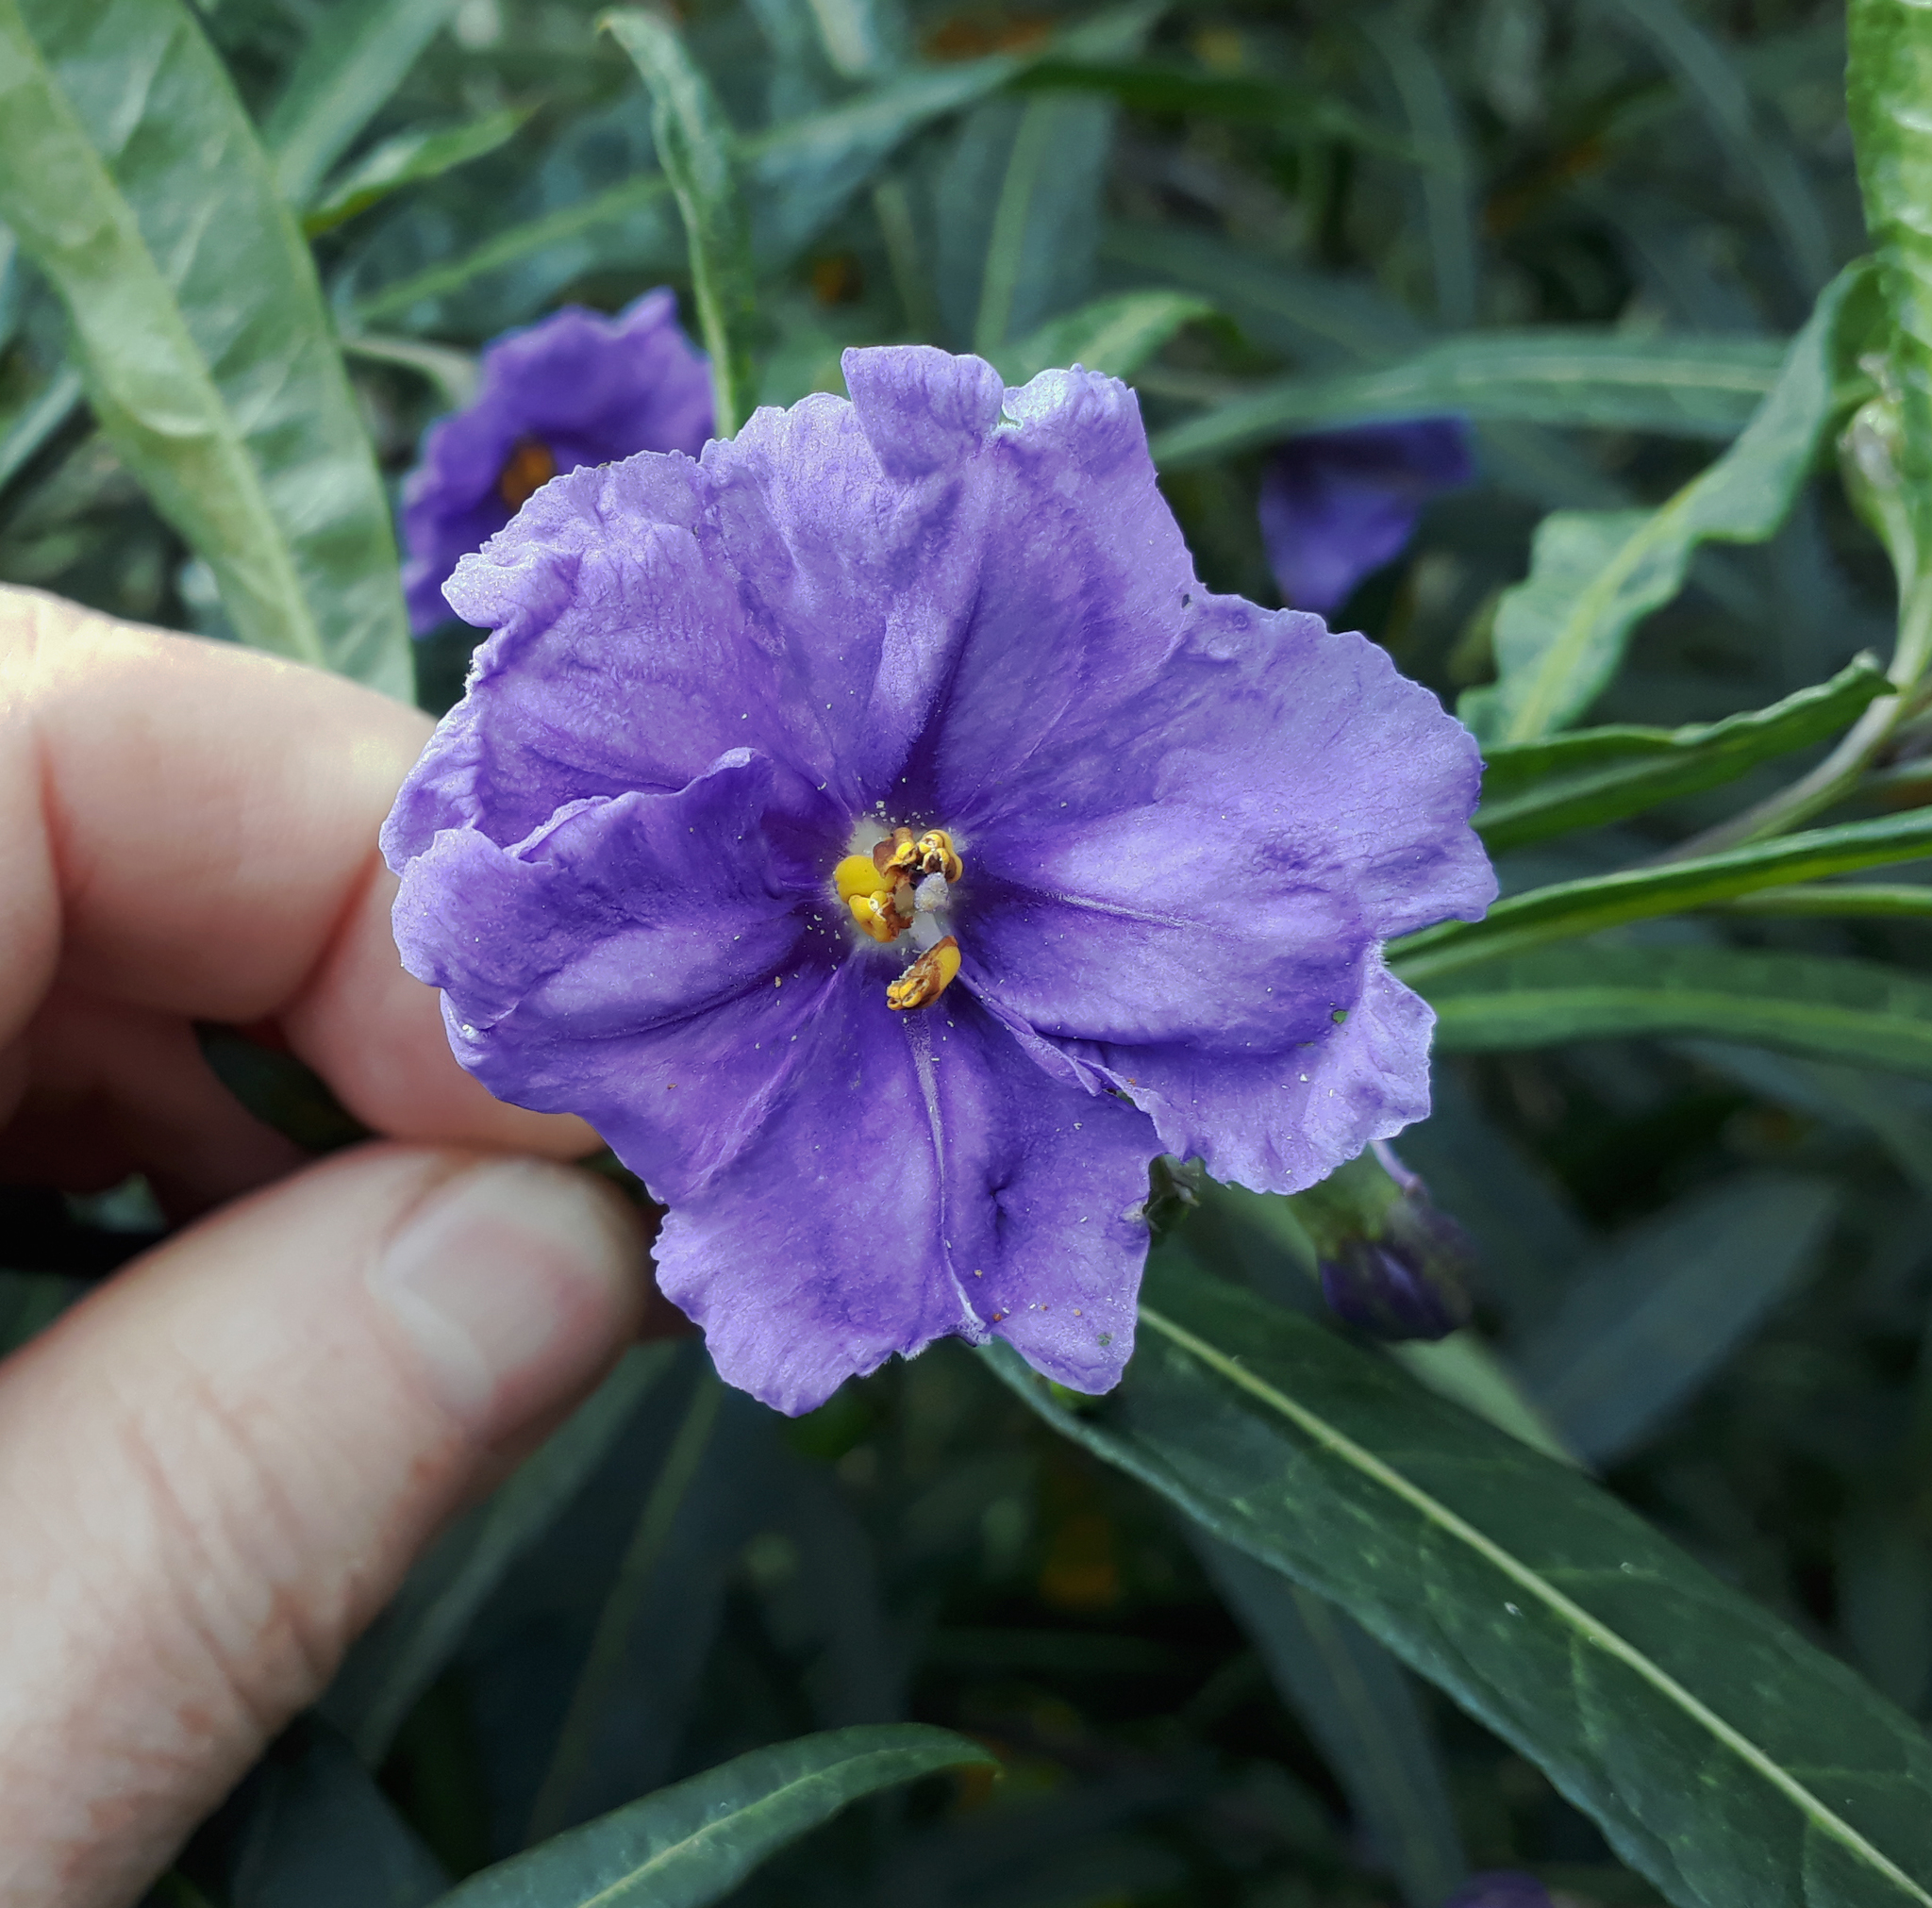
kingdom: Plantae
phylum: Tracheophyta
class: Magnoliopsida
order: Solanales
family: Solanaceae
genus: Solanum
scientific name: Solanum laciniatum
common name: Kangaroo-apple
